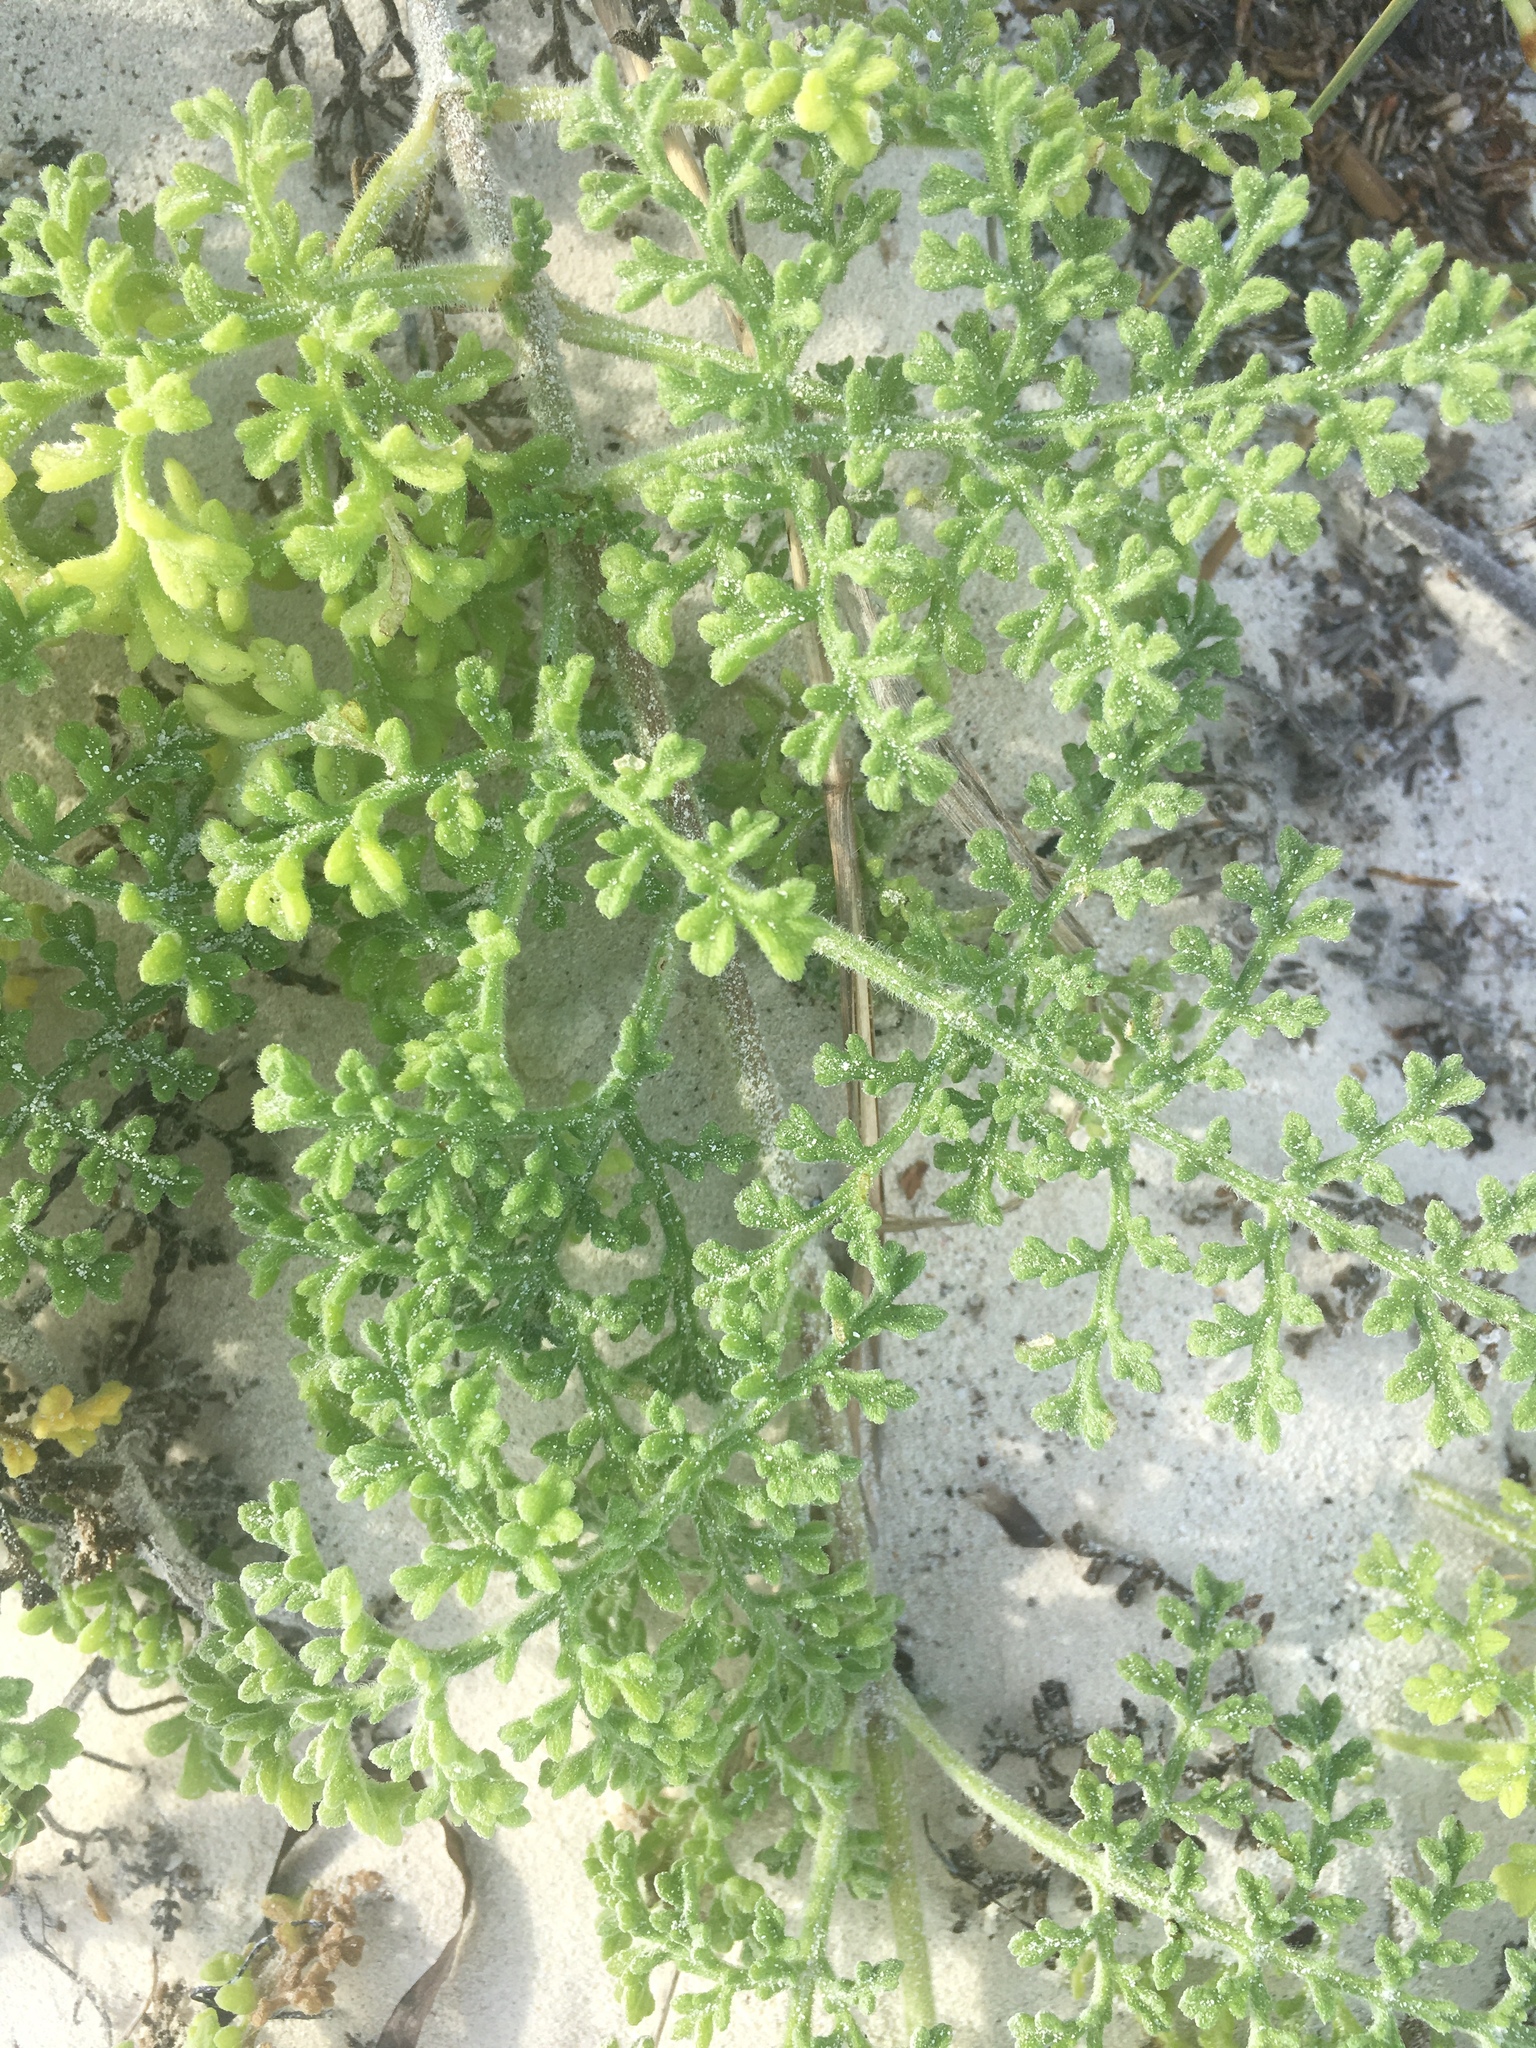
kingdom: Plantae
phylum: Tracheophyta
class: Magnoliopsida
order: Asterales
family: Asteraceae
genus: Ambrosia
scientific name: Ambrosia hispida
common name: Coastal ragweed
